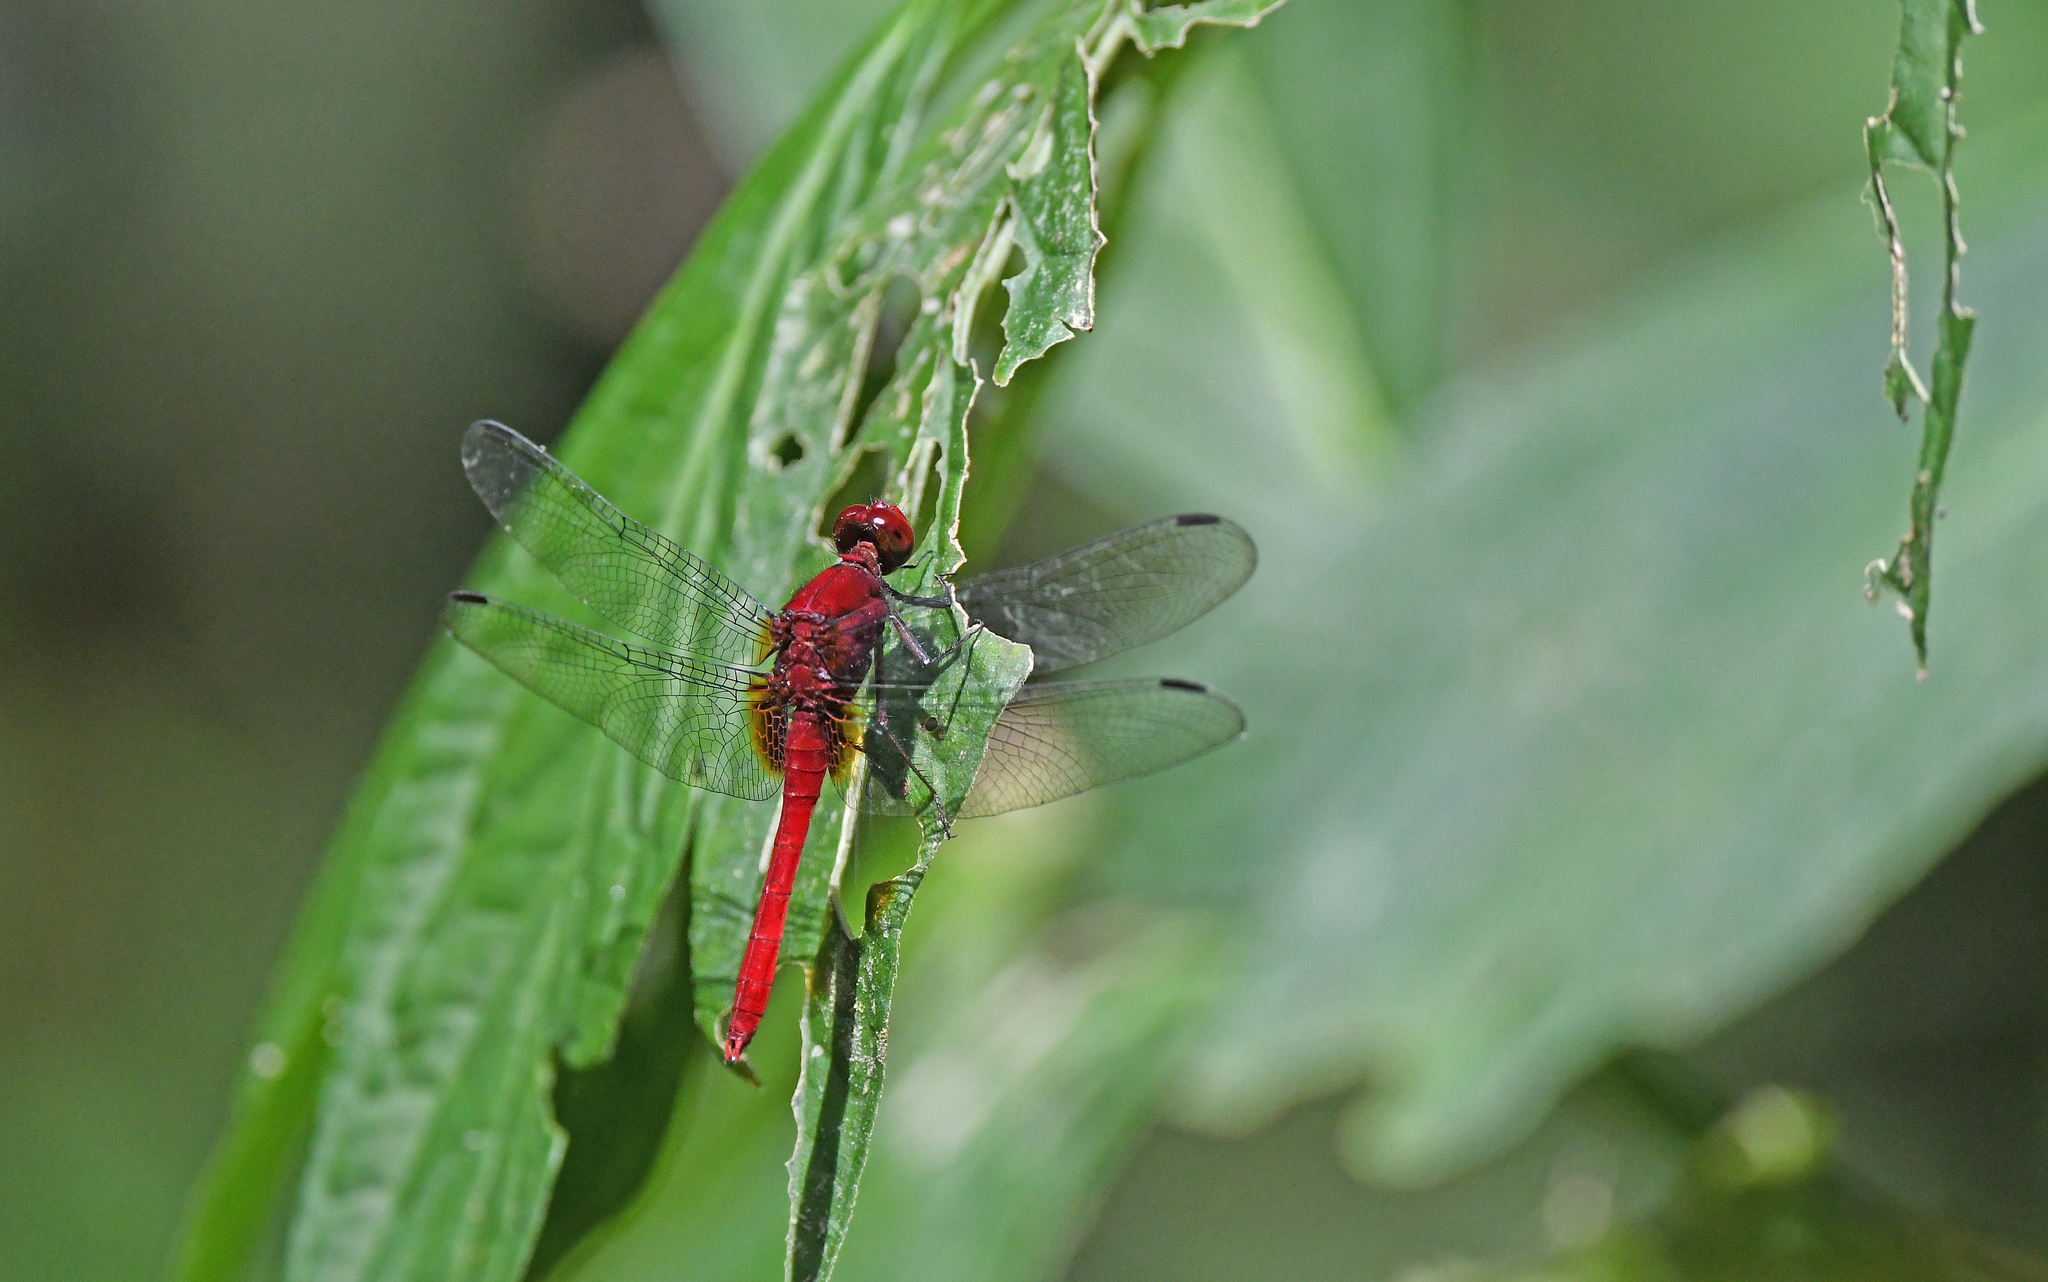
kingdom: Animalia
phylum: Arthropoda
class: Insecta
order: Odonata
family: Libellulidae
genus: Erythemis
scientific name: Erythemis mithroides
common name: Claret pondhawk
